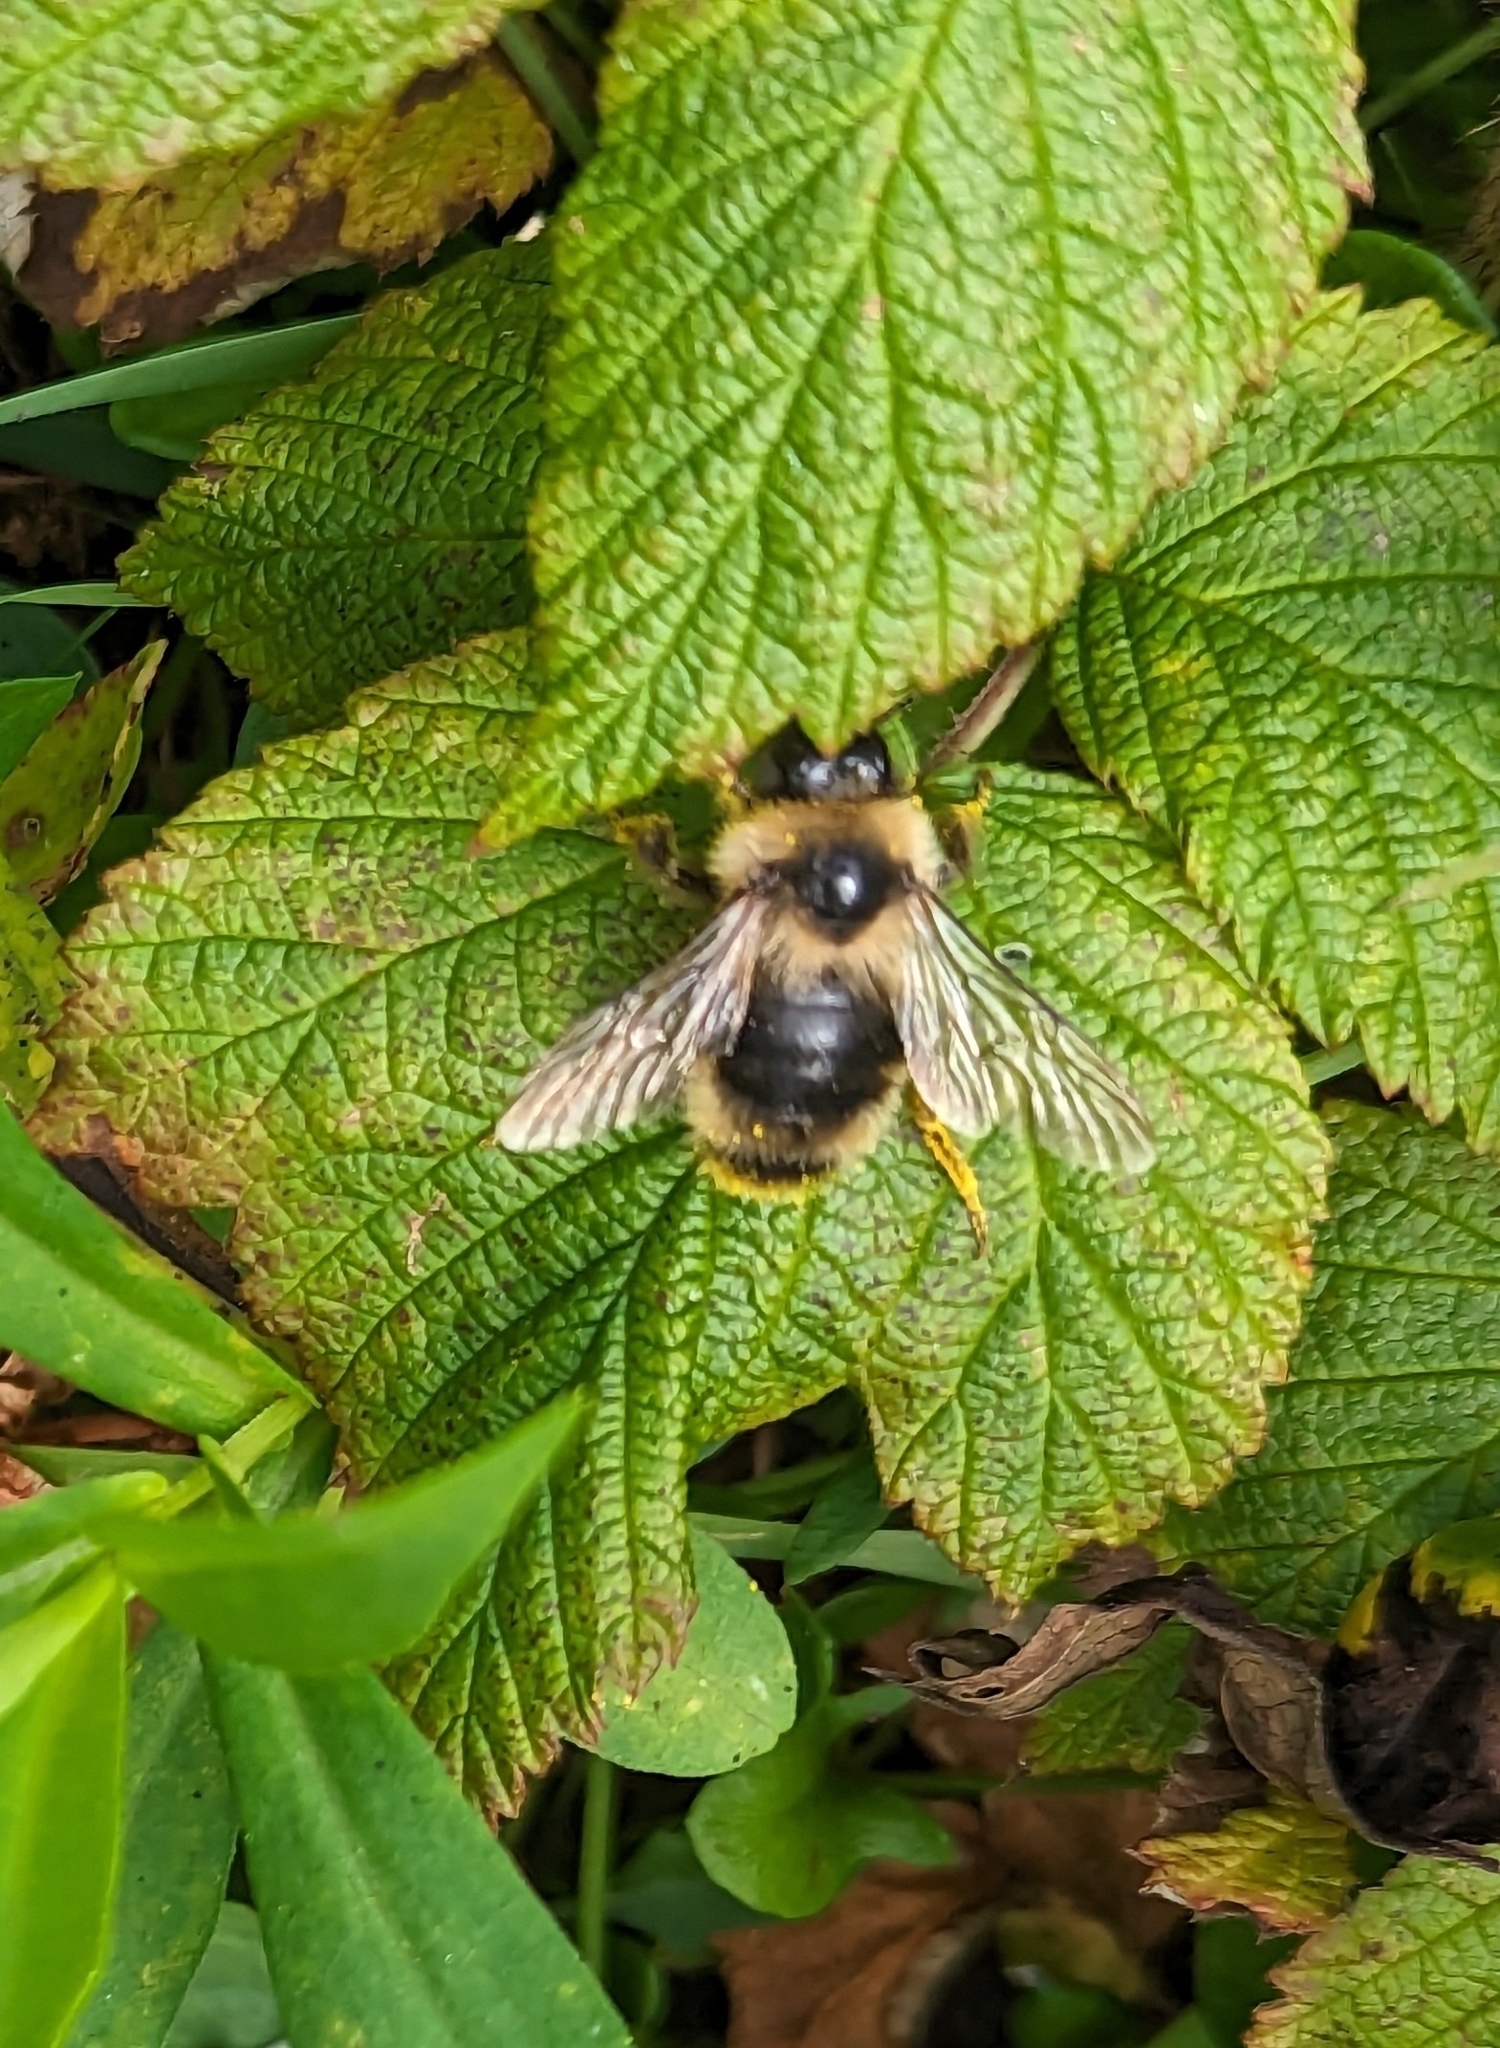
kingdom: Animalia
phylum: Arthropoda
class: Insecta
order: Hymenoptera
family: Apidae
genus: Bombus
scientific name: Bombus flavidus
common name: Fernald cuckoo bumble bee
